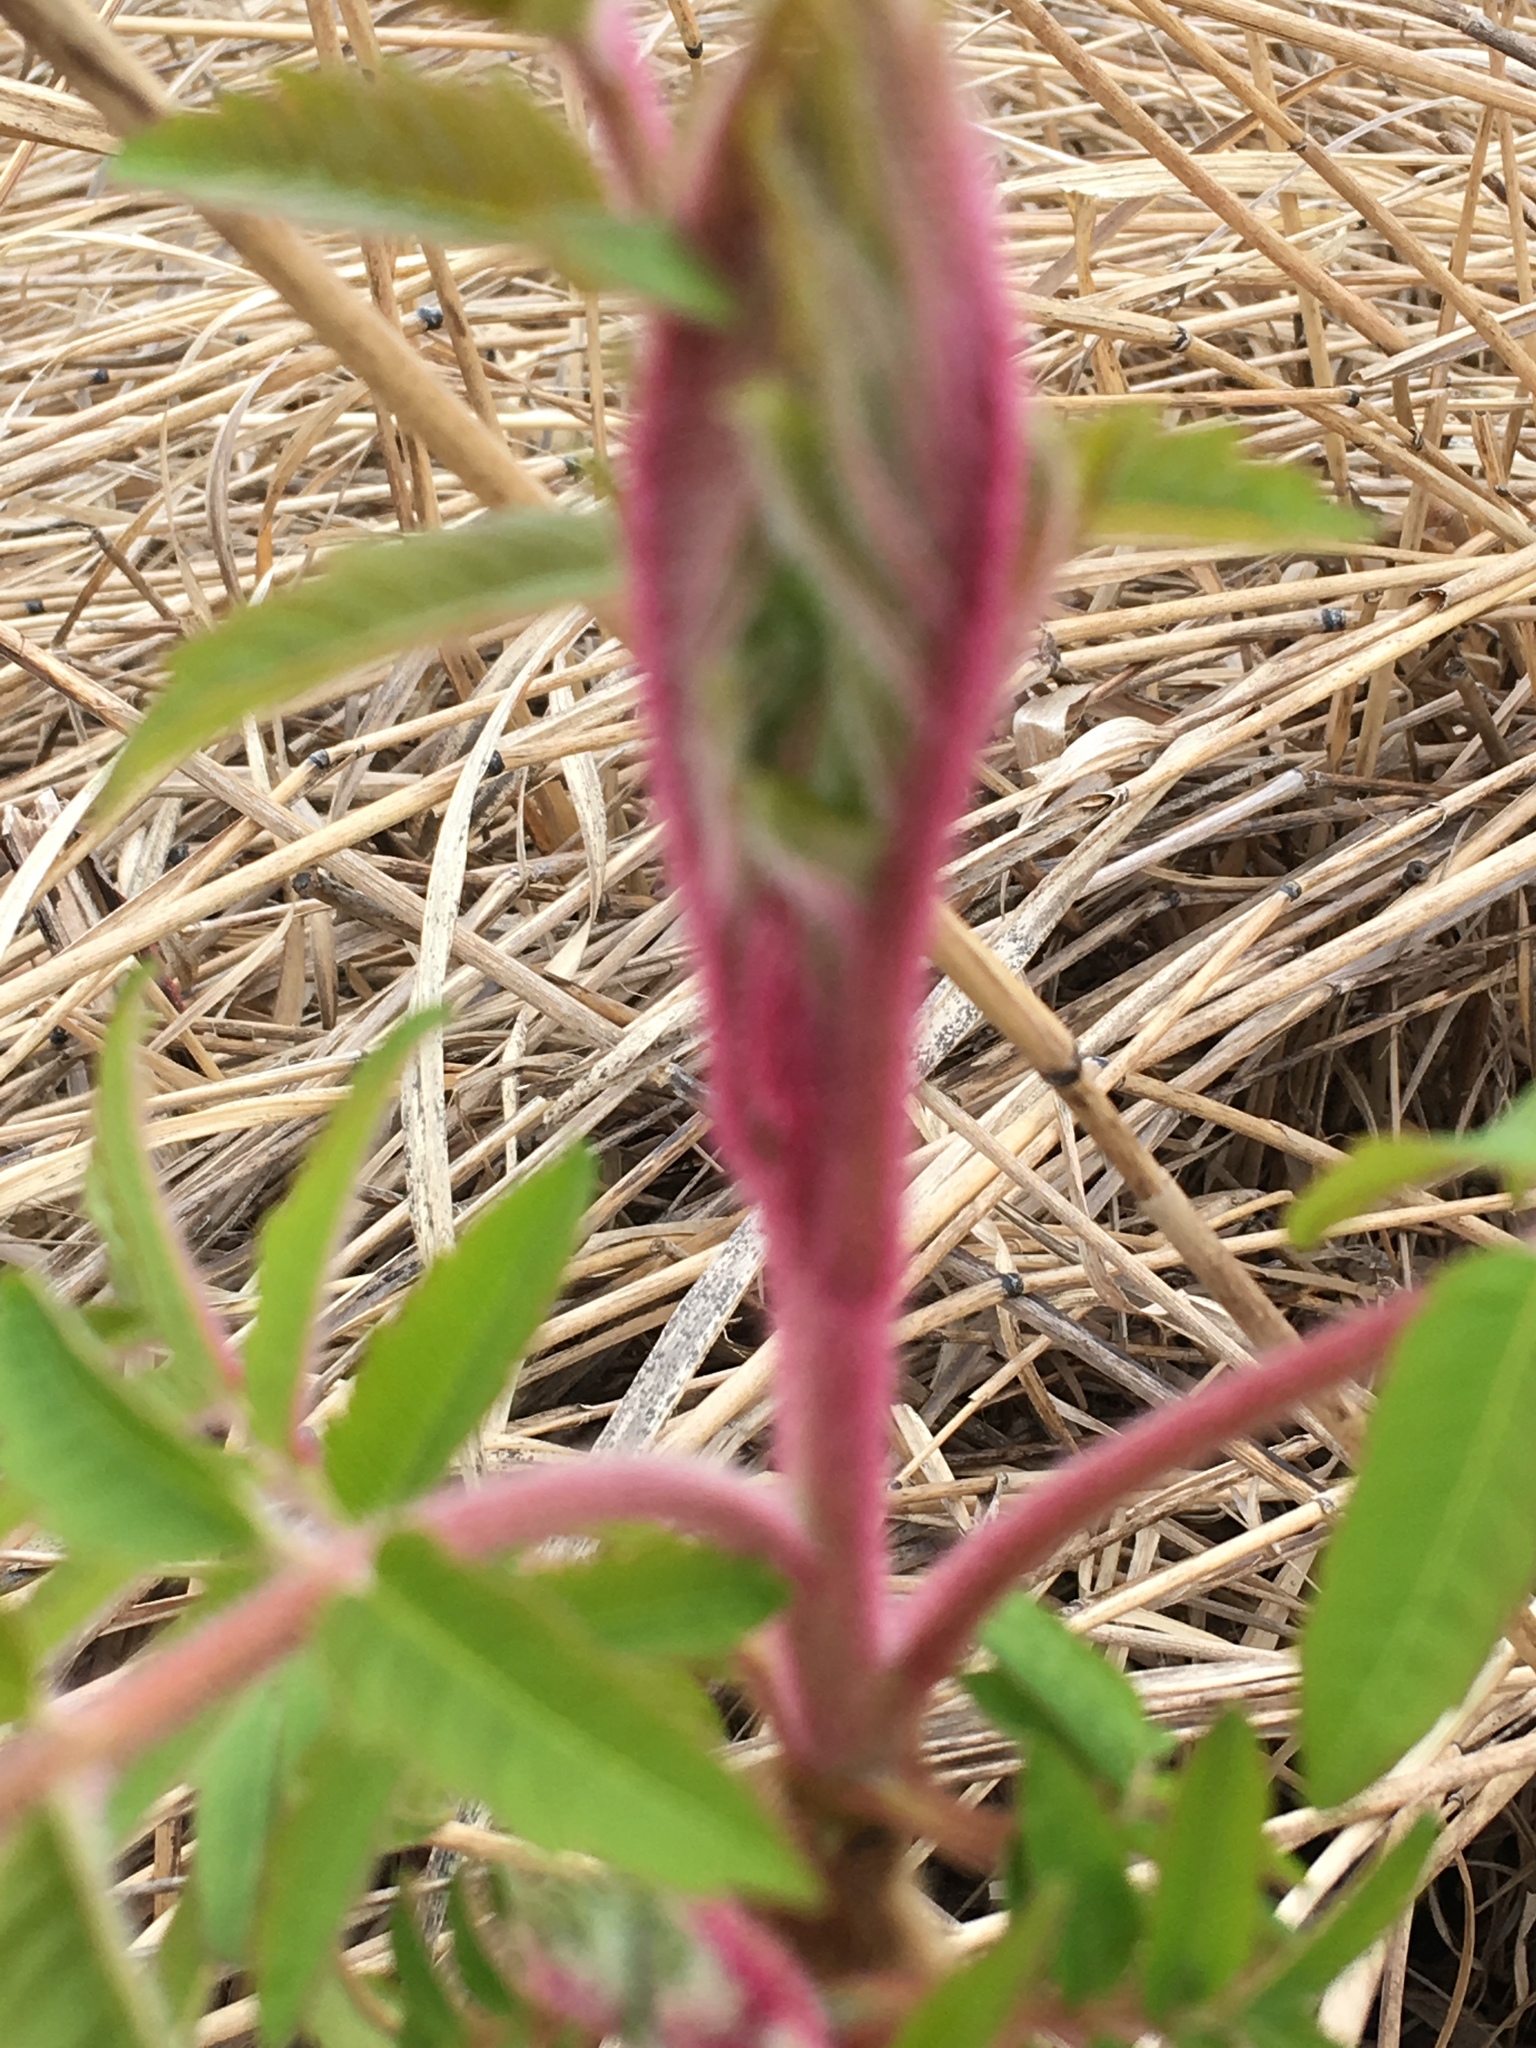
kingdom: Plantae
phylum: Tracheophyta
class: Magnoliopsida
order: Sapindales
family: Anacardiaceae
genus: Rhus
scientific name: Rhus typhina
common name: Staghorn sumac
